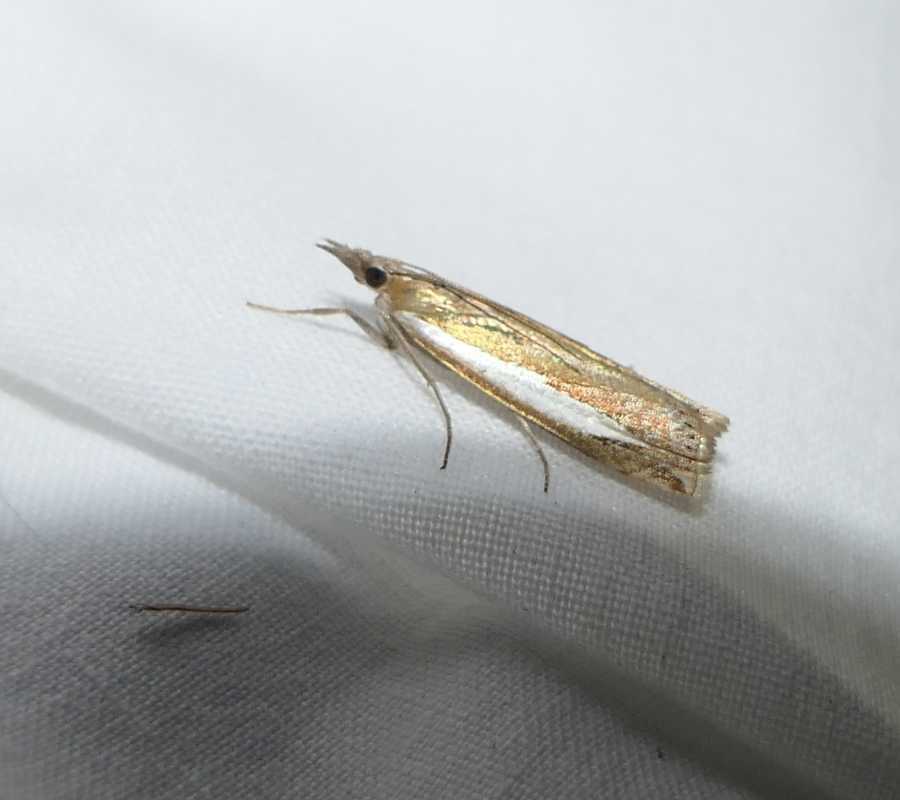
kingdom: Animalia
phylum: Arthropoda
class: Insecta
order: Lepidoptera
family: Crambidae
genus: Crambus
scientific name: Crambus praefectellus
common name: Common grass-veneer
